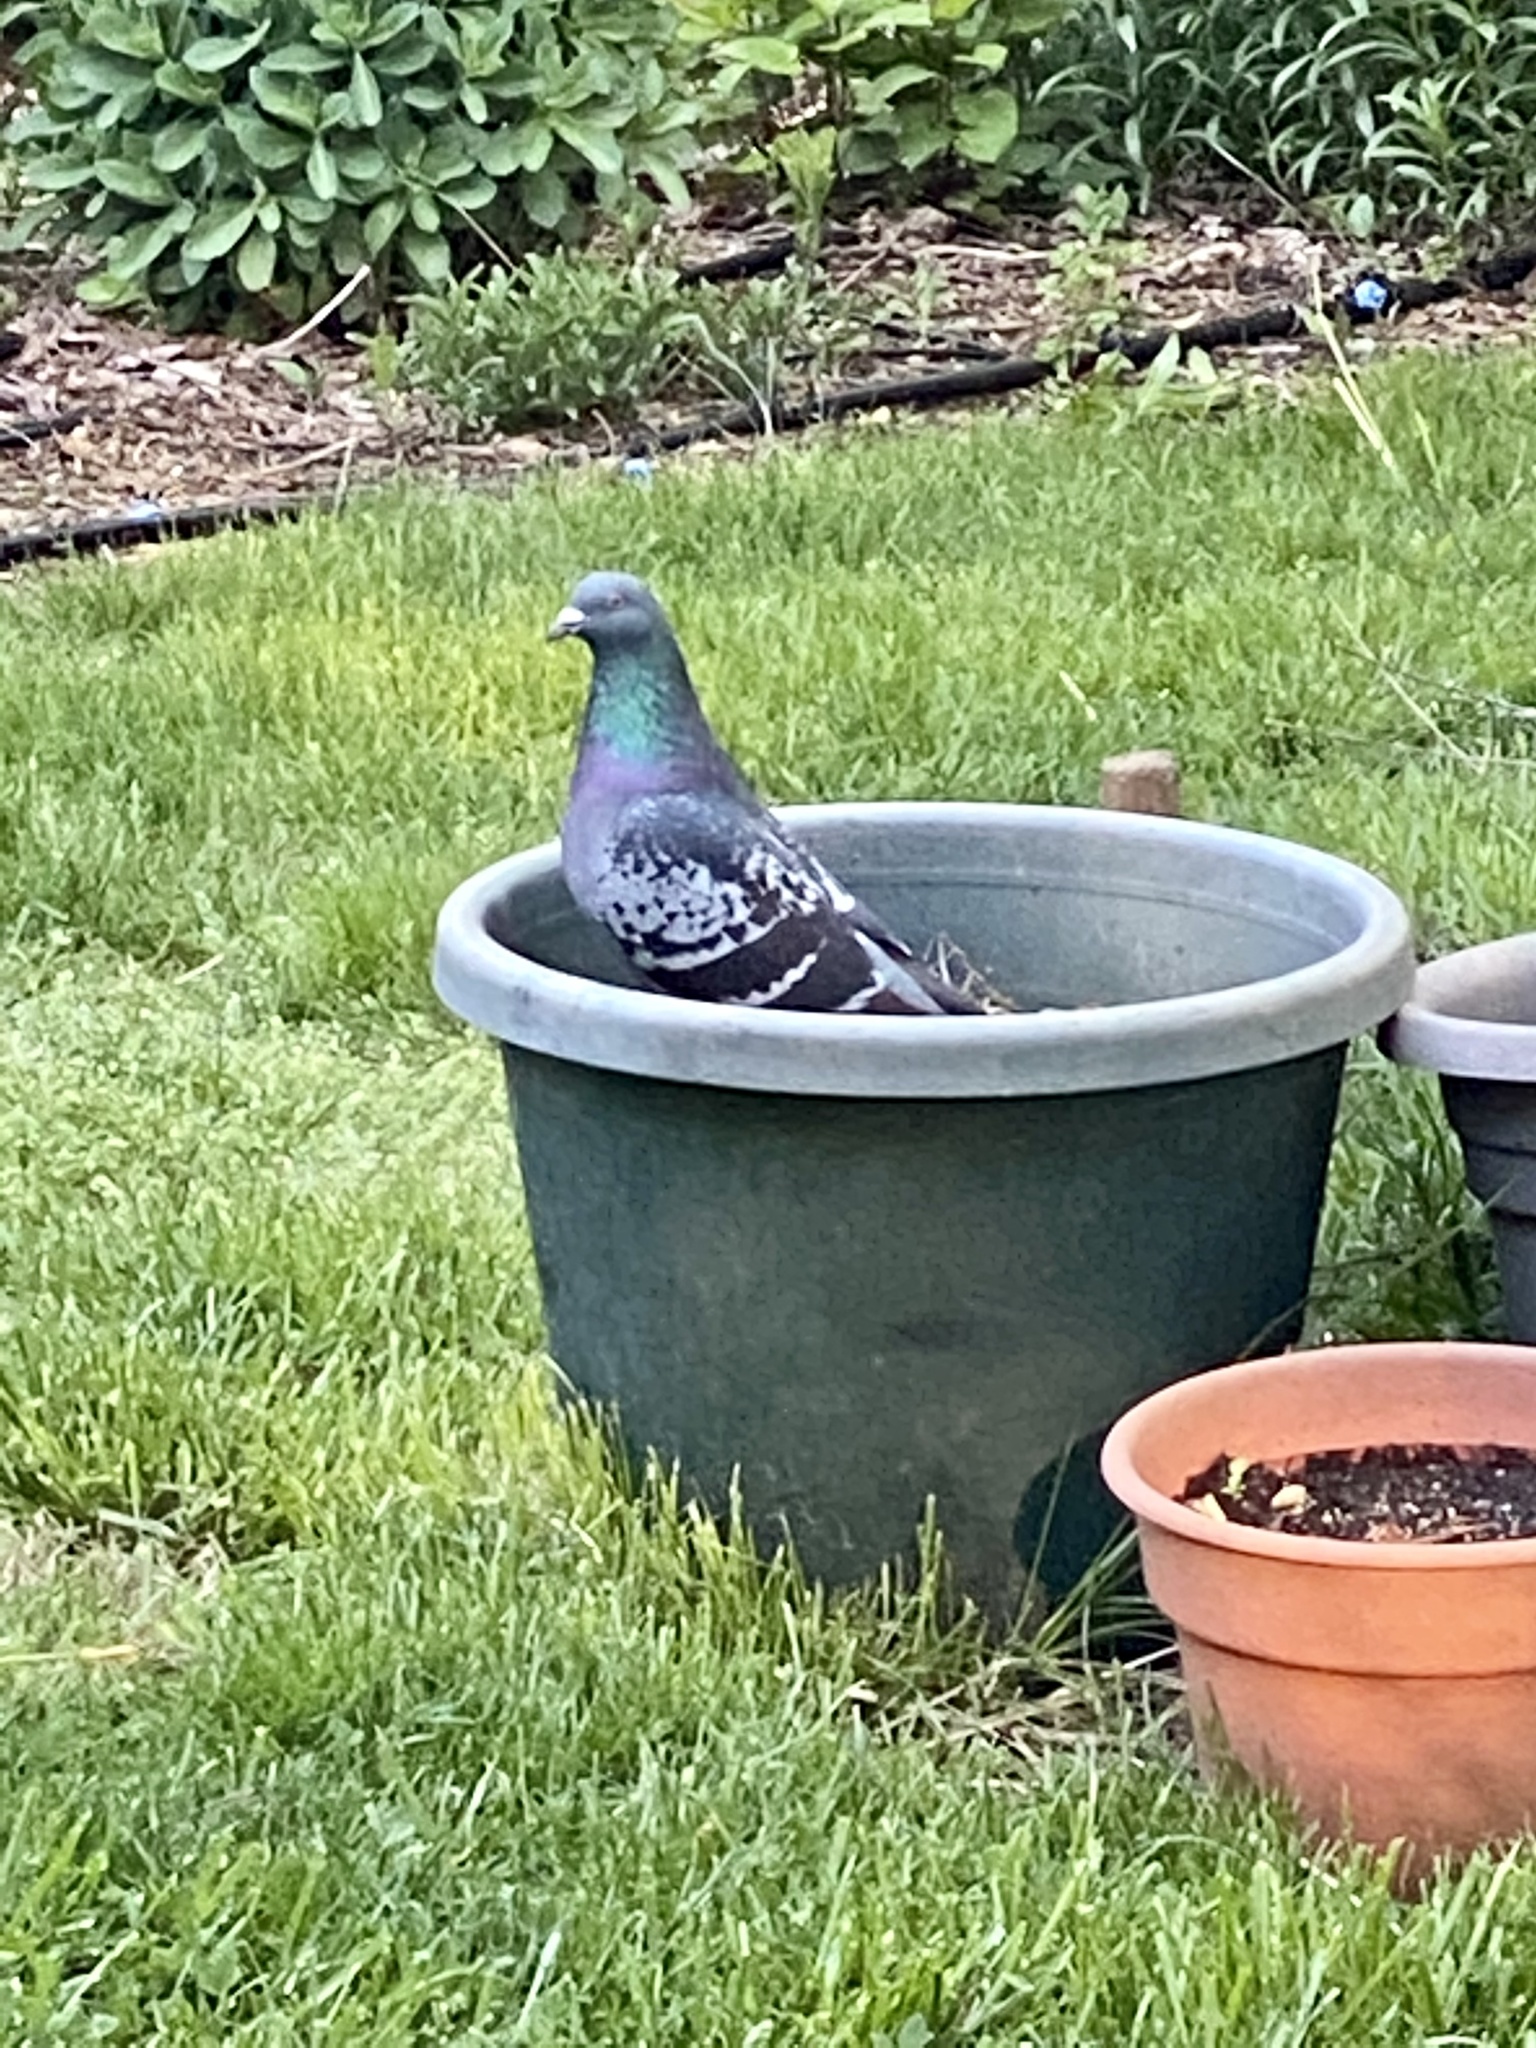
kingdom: Animalia
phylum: Chordata
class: Aves
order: Columbiformes
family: Columbidae
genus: Columba
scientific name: Columba livia
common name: Rock pigeon
